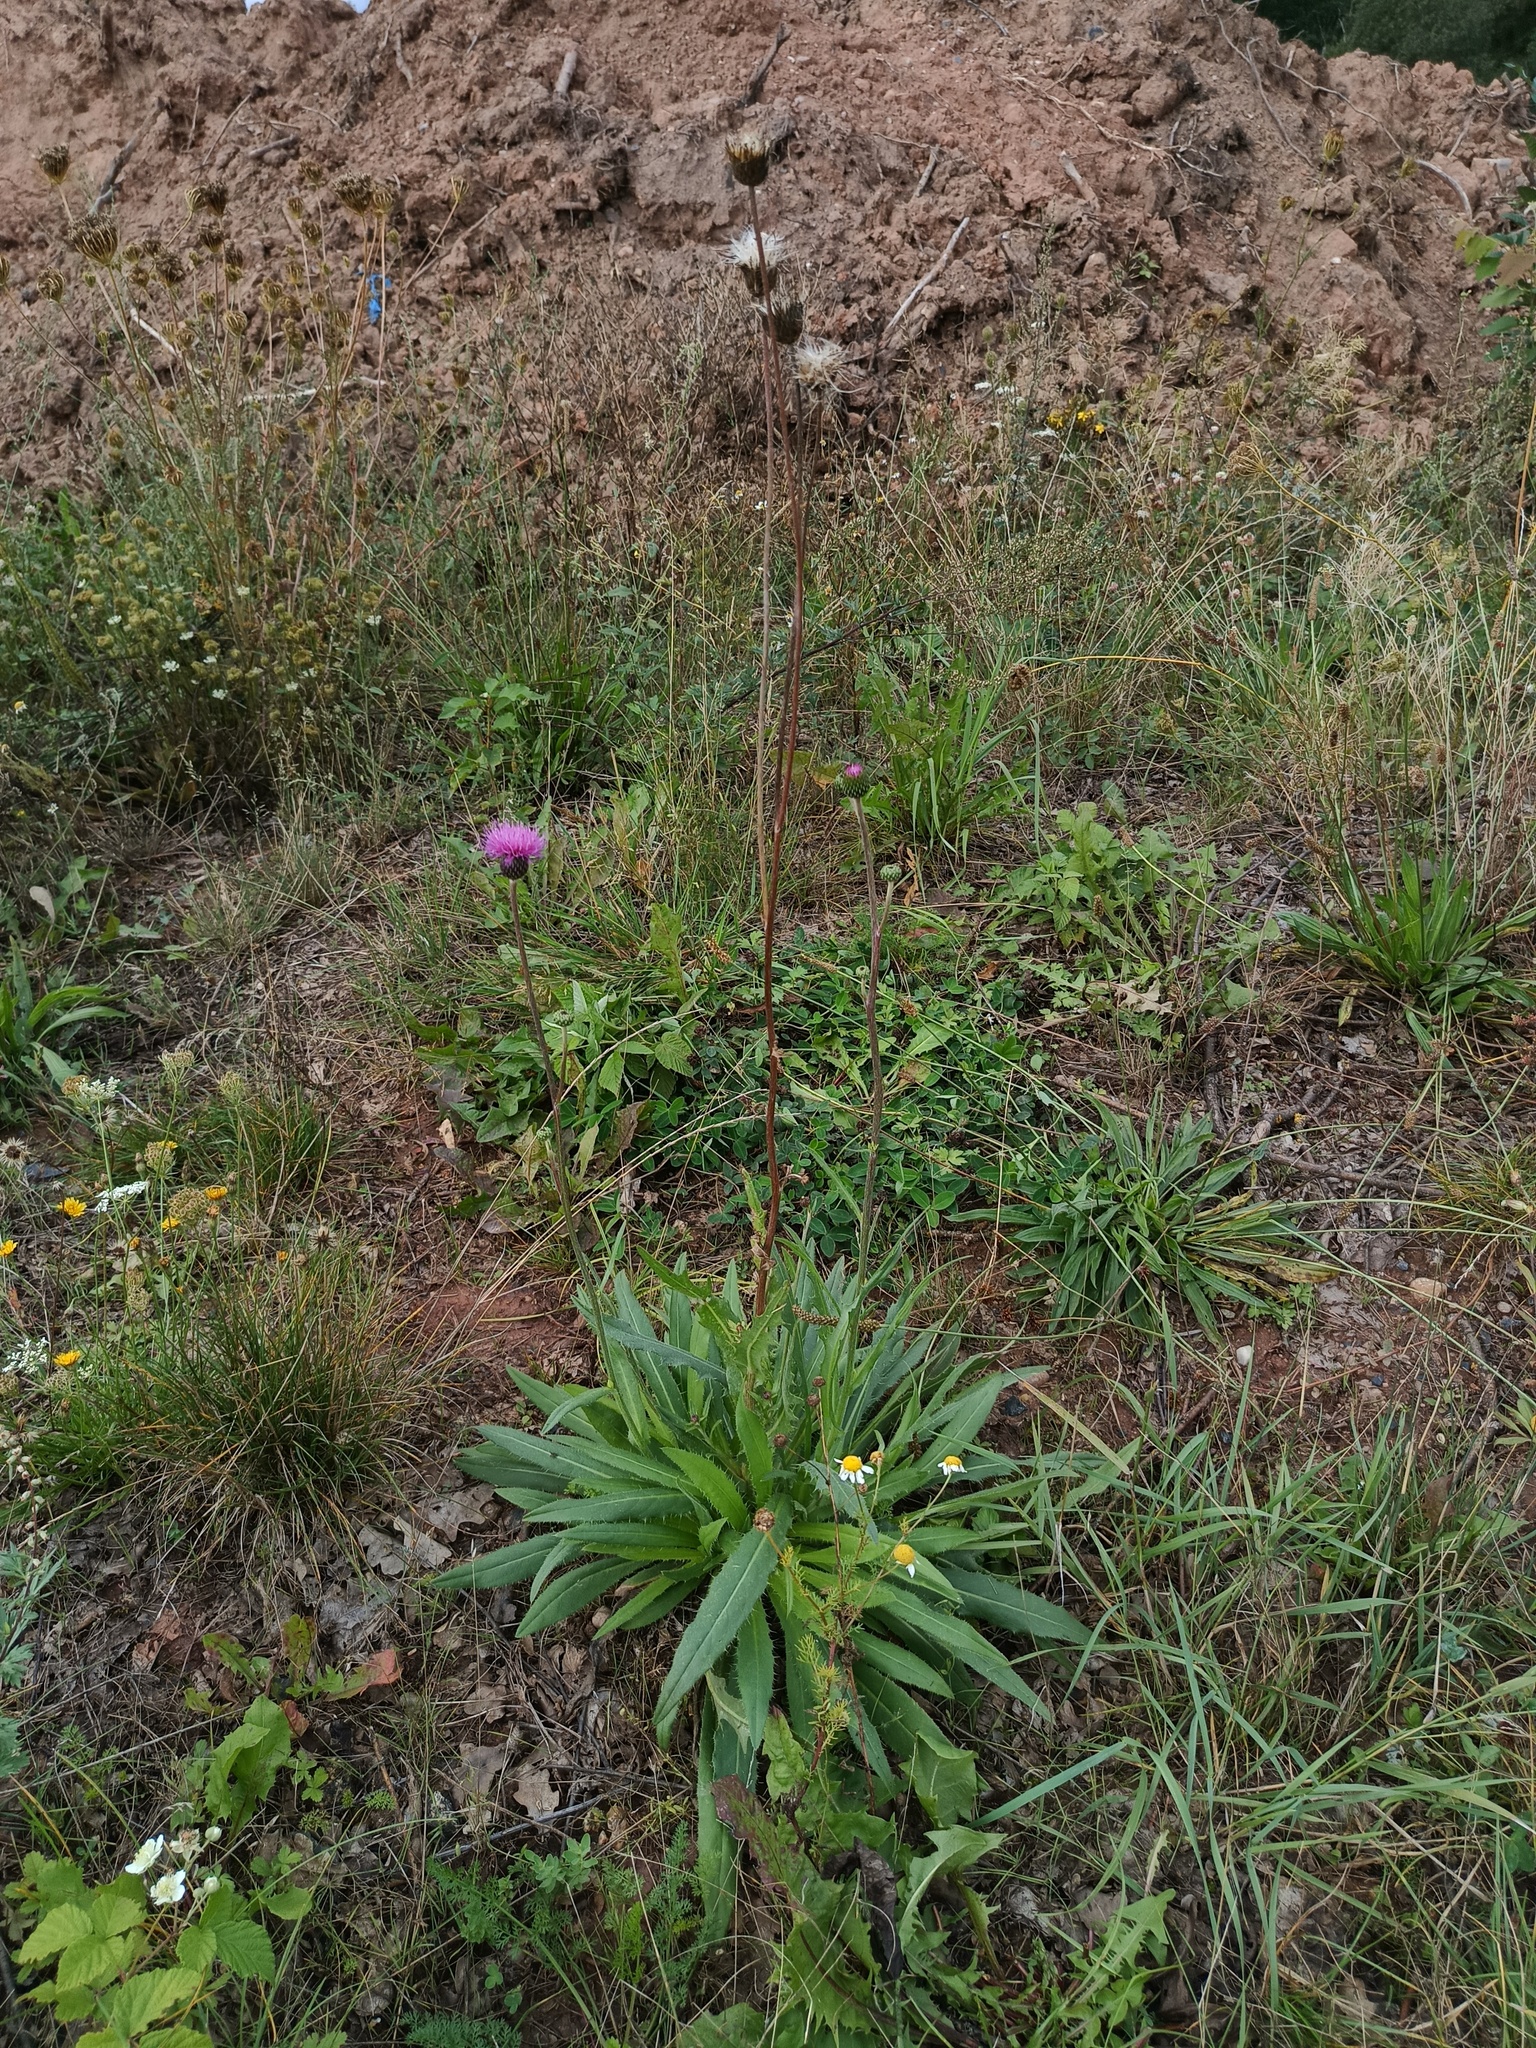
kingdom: Plantae
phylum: Tracheophyta
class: Magnoliopsida
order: Asterales
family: Asteraceae
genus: Cirsium
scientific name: Cirsium canum
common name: Queen anne's thistle
